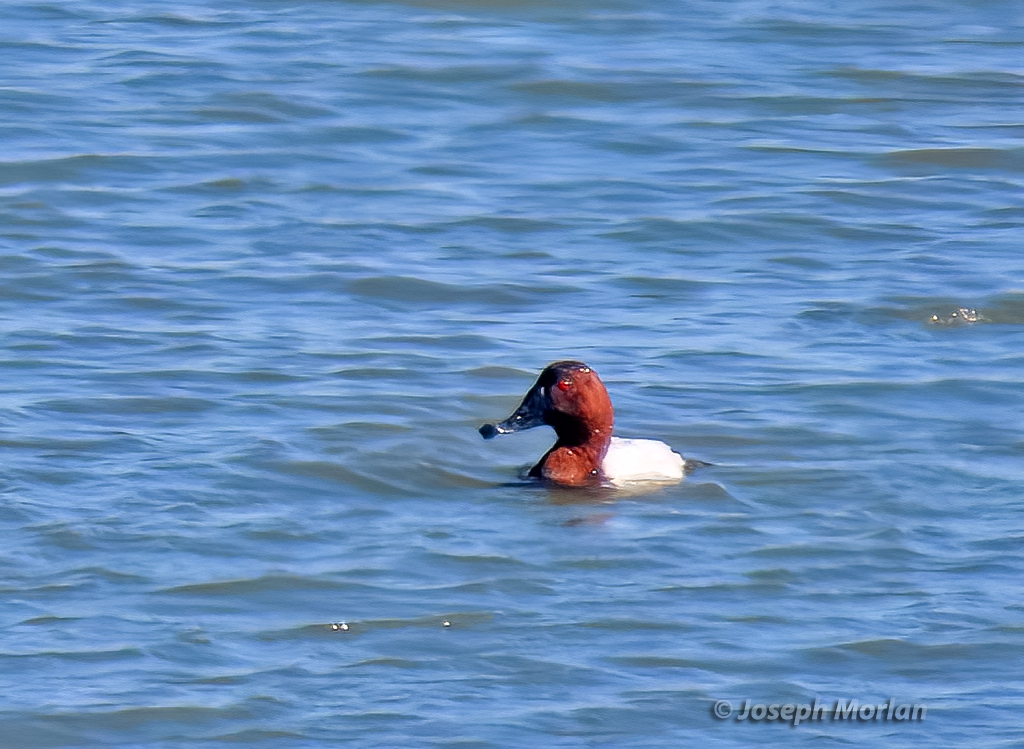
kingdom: Animalia
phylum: Chordata
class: Aves
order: Anseriformes
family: Anatidae
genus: Aythya
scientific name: Aythya valisineria
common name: Canvasback
